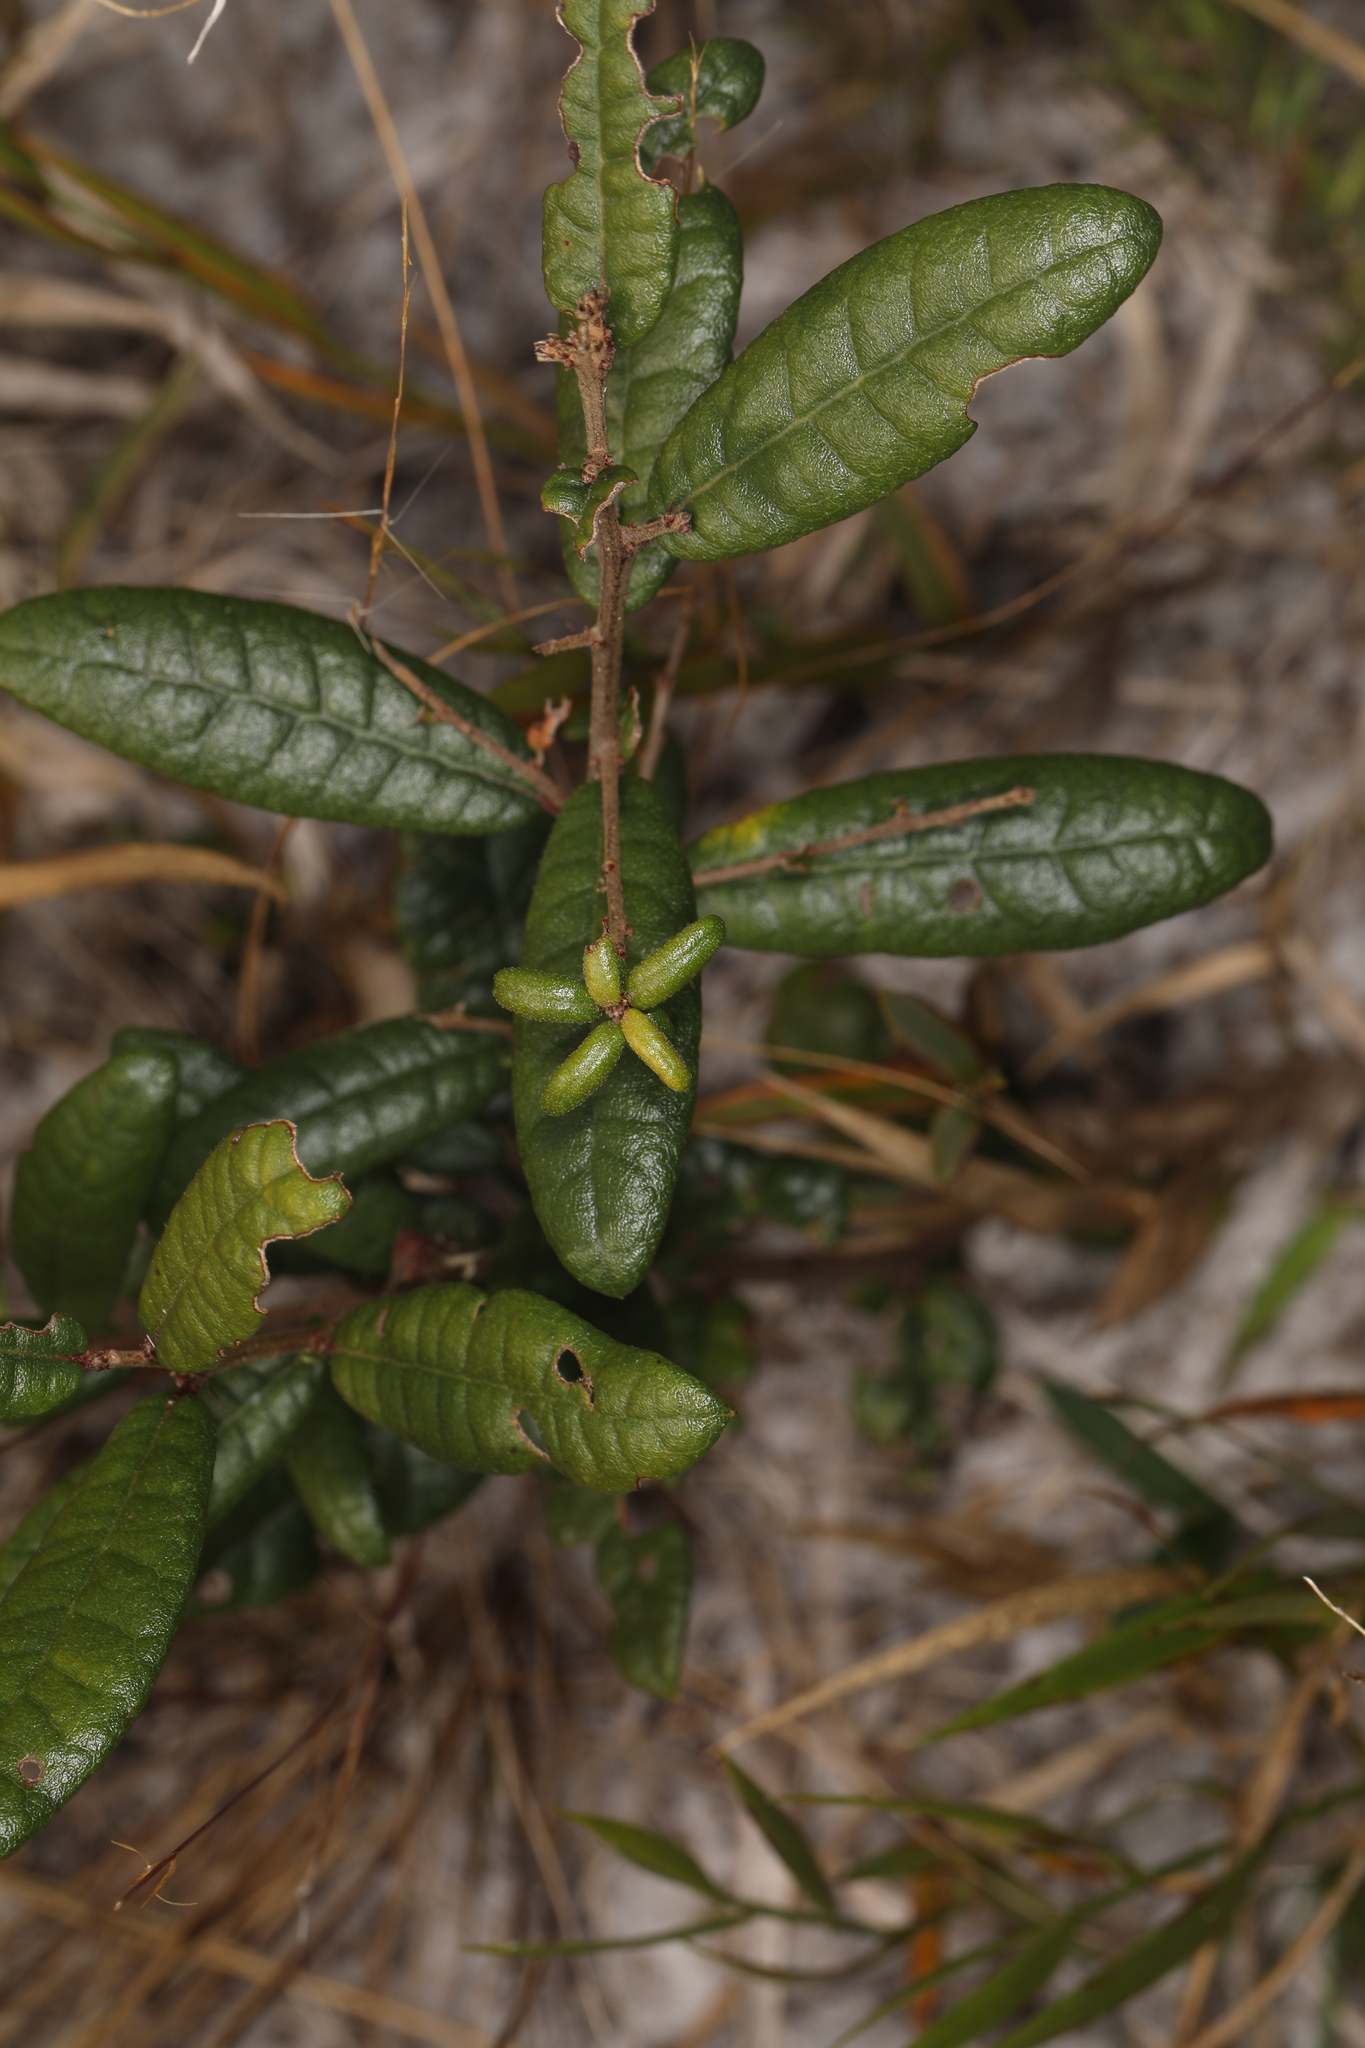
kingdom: Plantae
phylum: Tracheophyta
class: Magnoliopsida
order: Fagales
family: Fagaceae
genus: Quercus
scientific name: Quercus geminata
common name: Sand live oak
